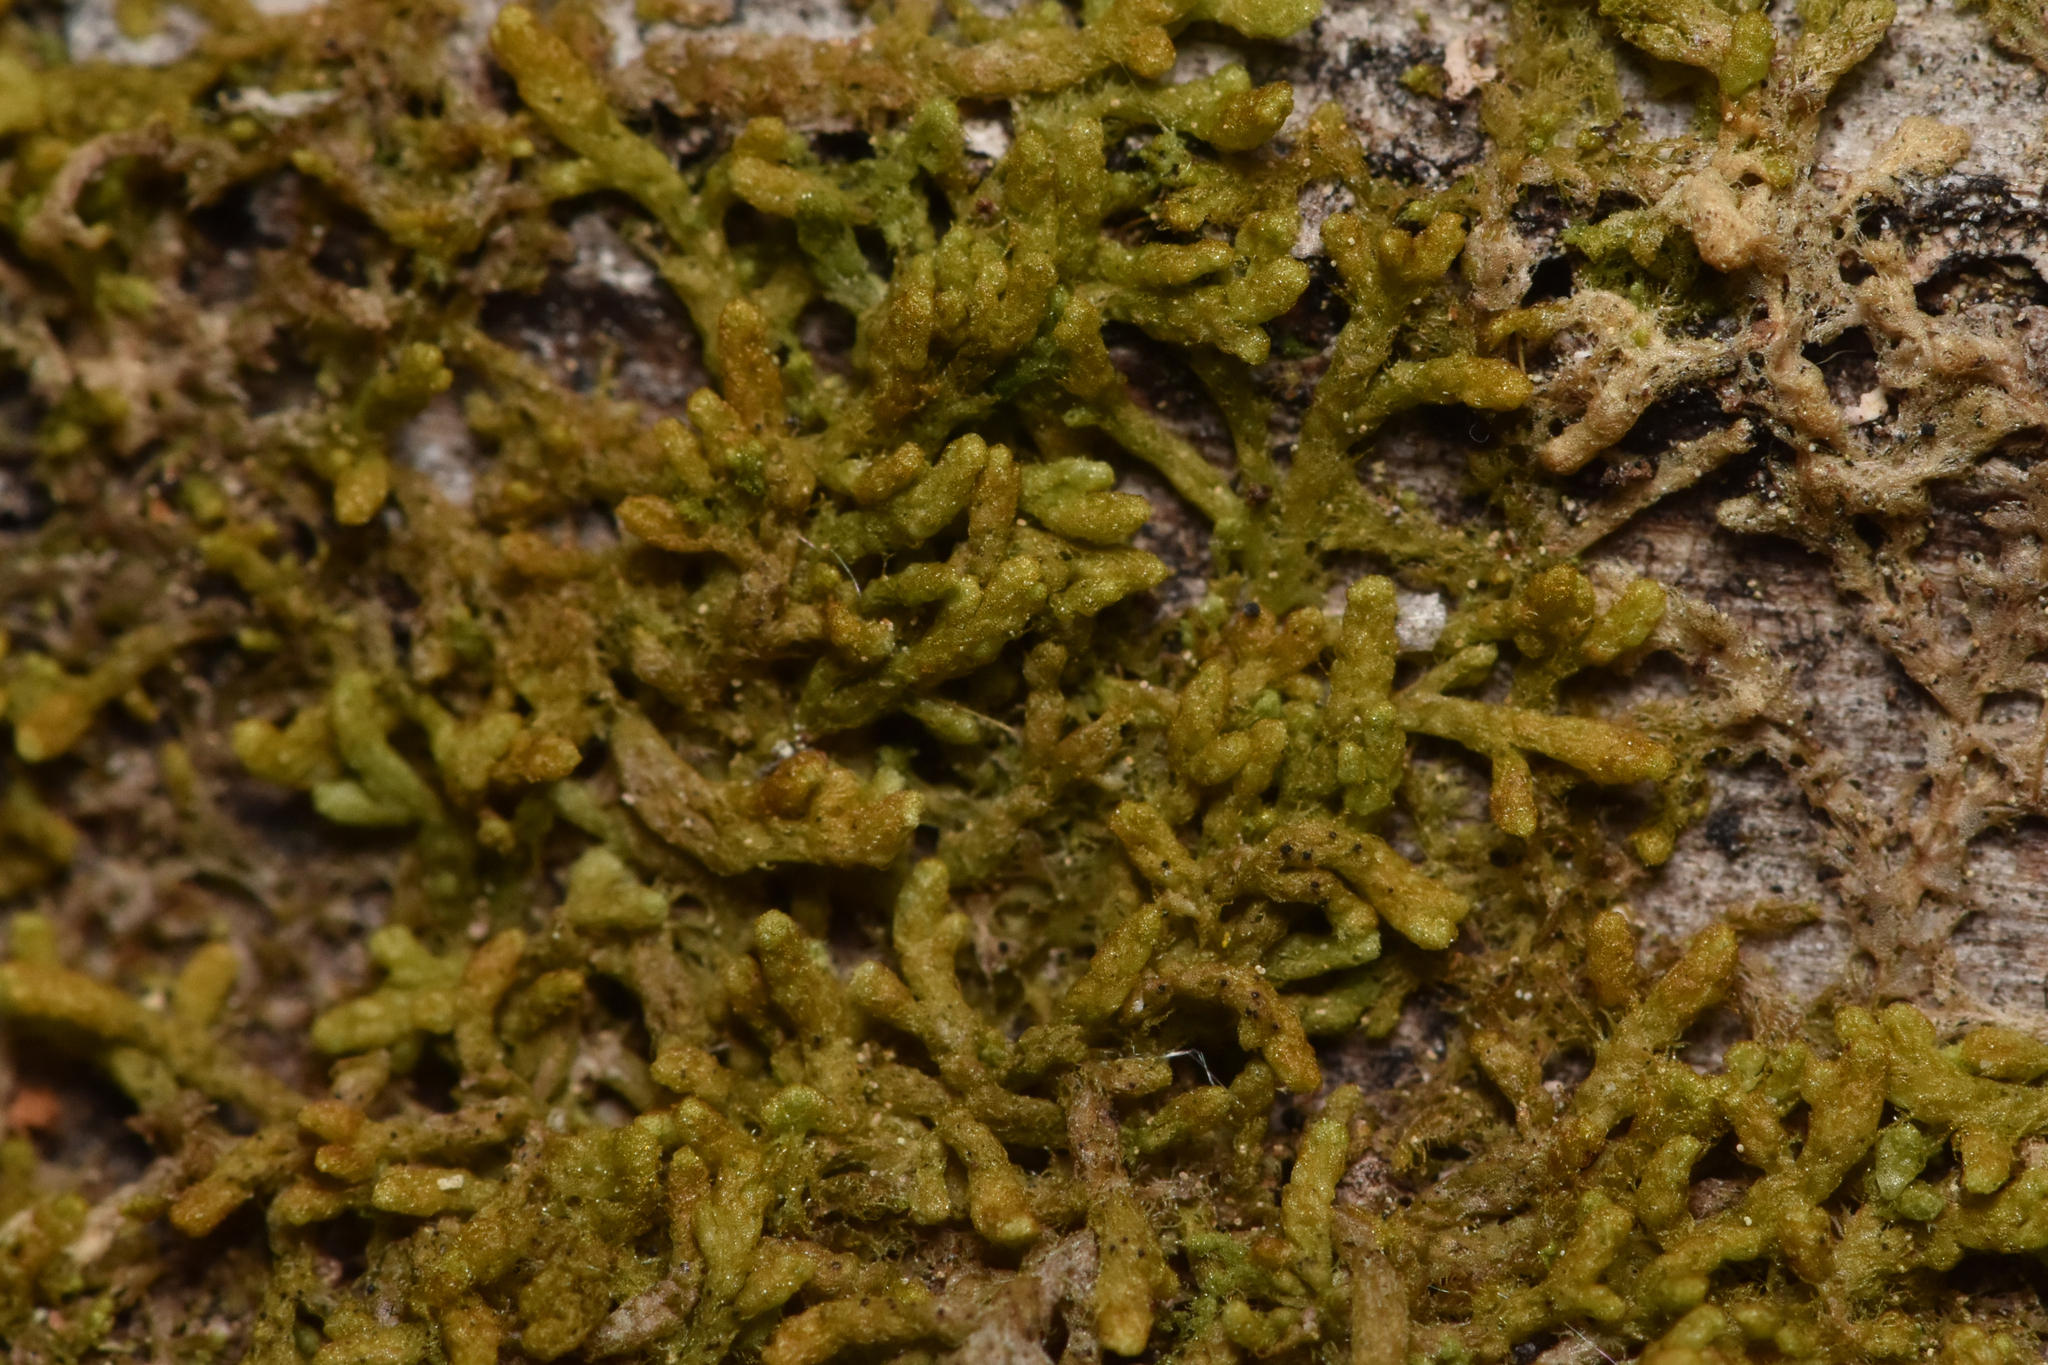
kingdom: Plantae
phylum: Marchantiophyta
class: Jungermanniopsida
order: Ptilidiales
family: Ptilidiaceae
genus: Ptilidium
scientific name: Ptilidium pulcherrimum
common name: Tree fringewort
